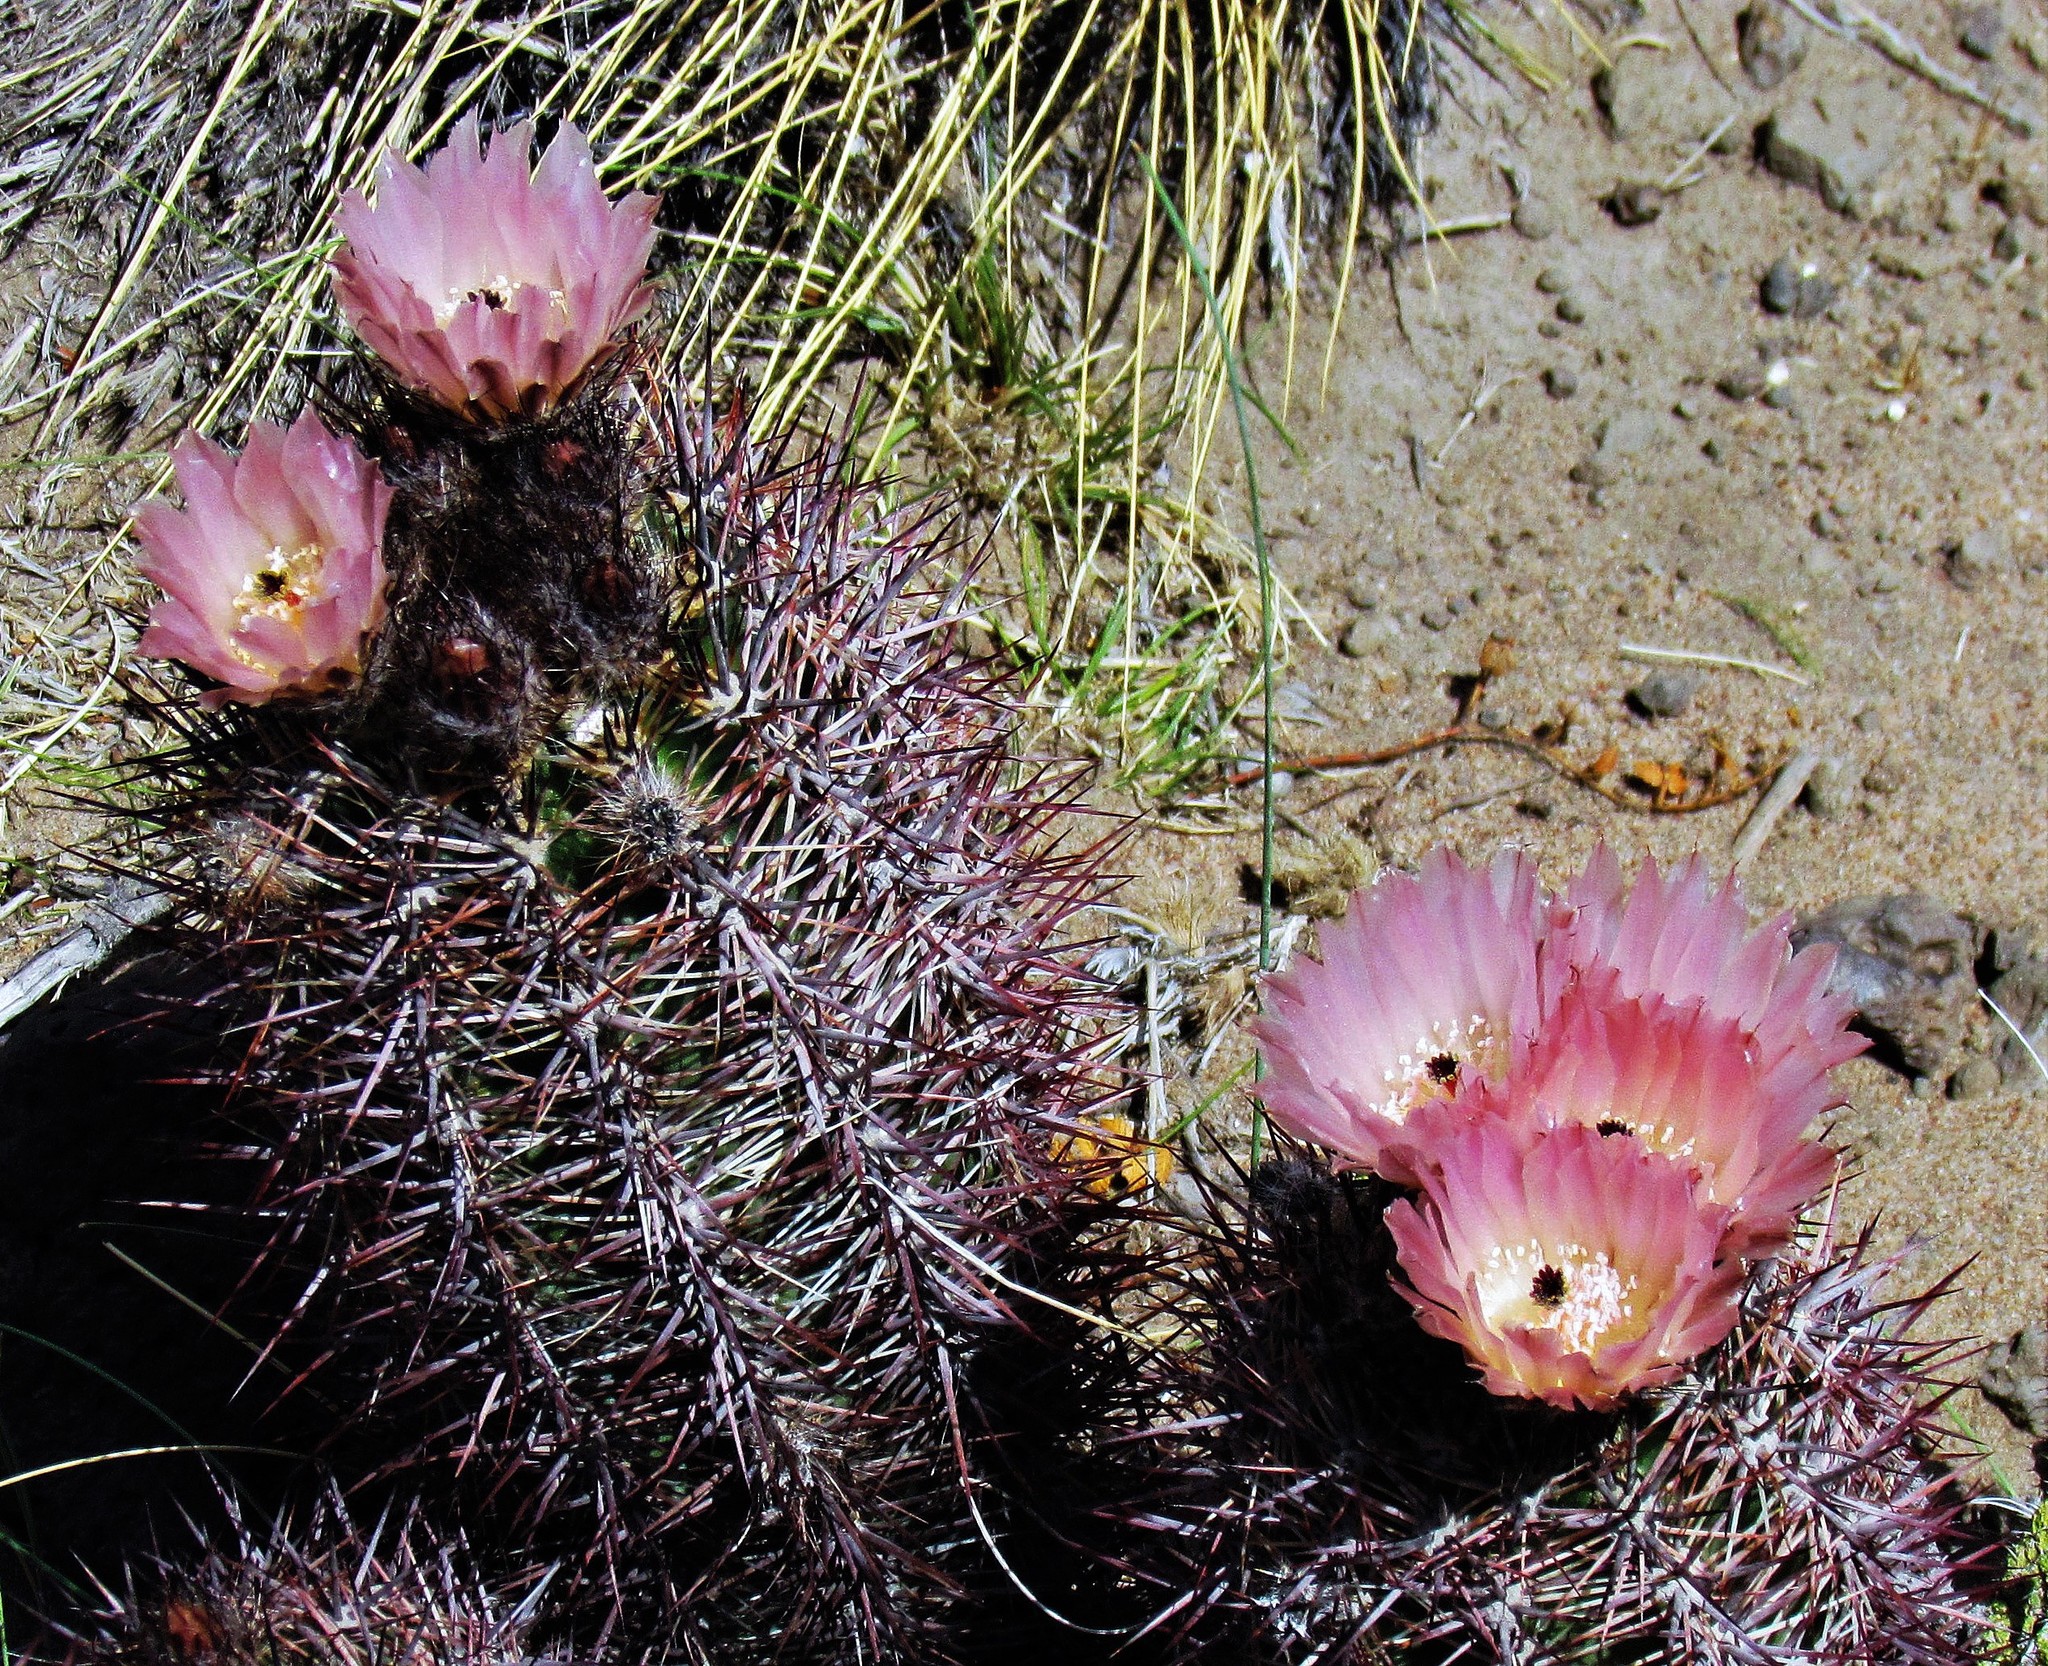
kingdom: Plantae
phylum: Tracheophyta
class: Magnoliopsida
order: Caryophyllales
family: Cactaceae
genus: Austrocactus
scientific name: Austrocactus bertinii
